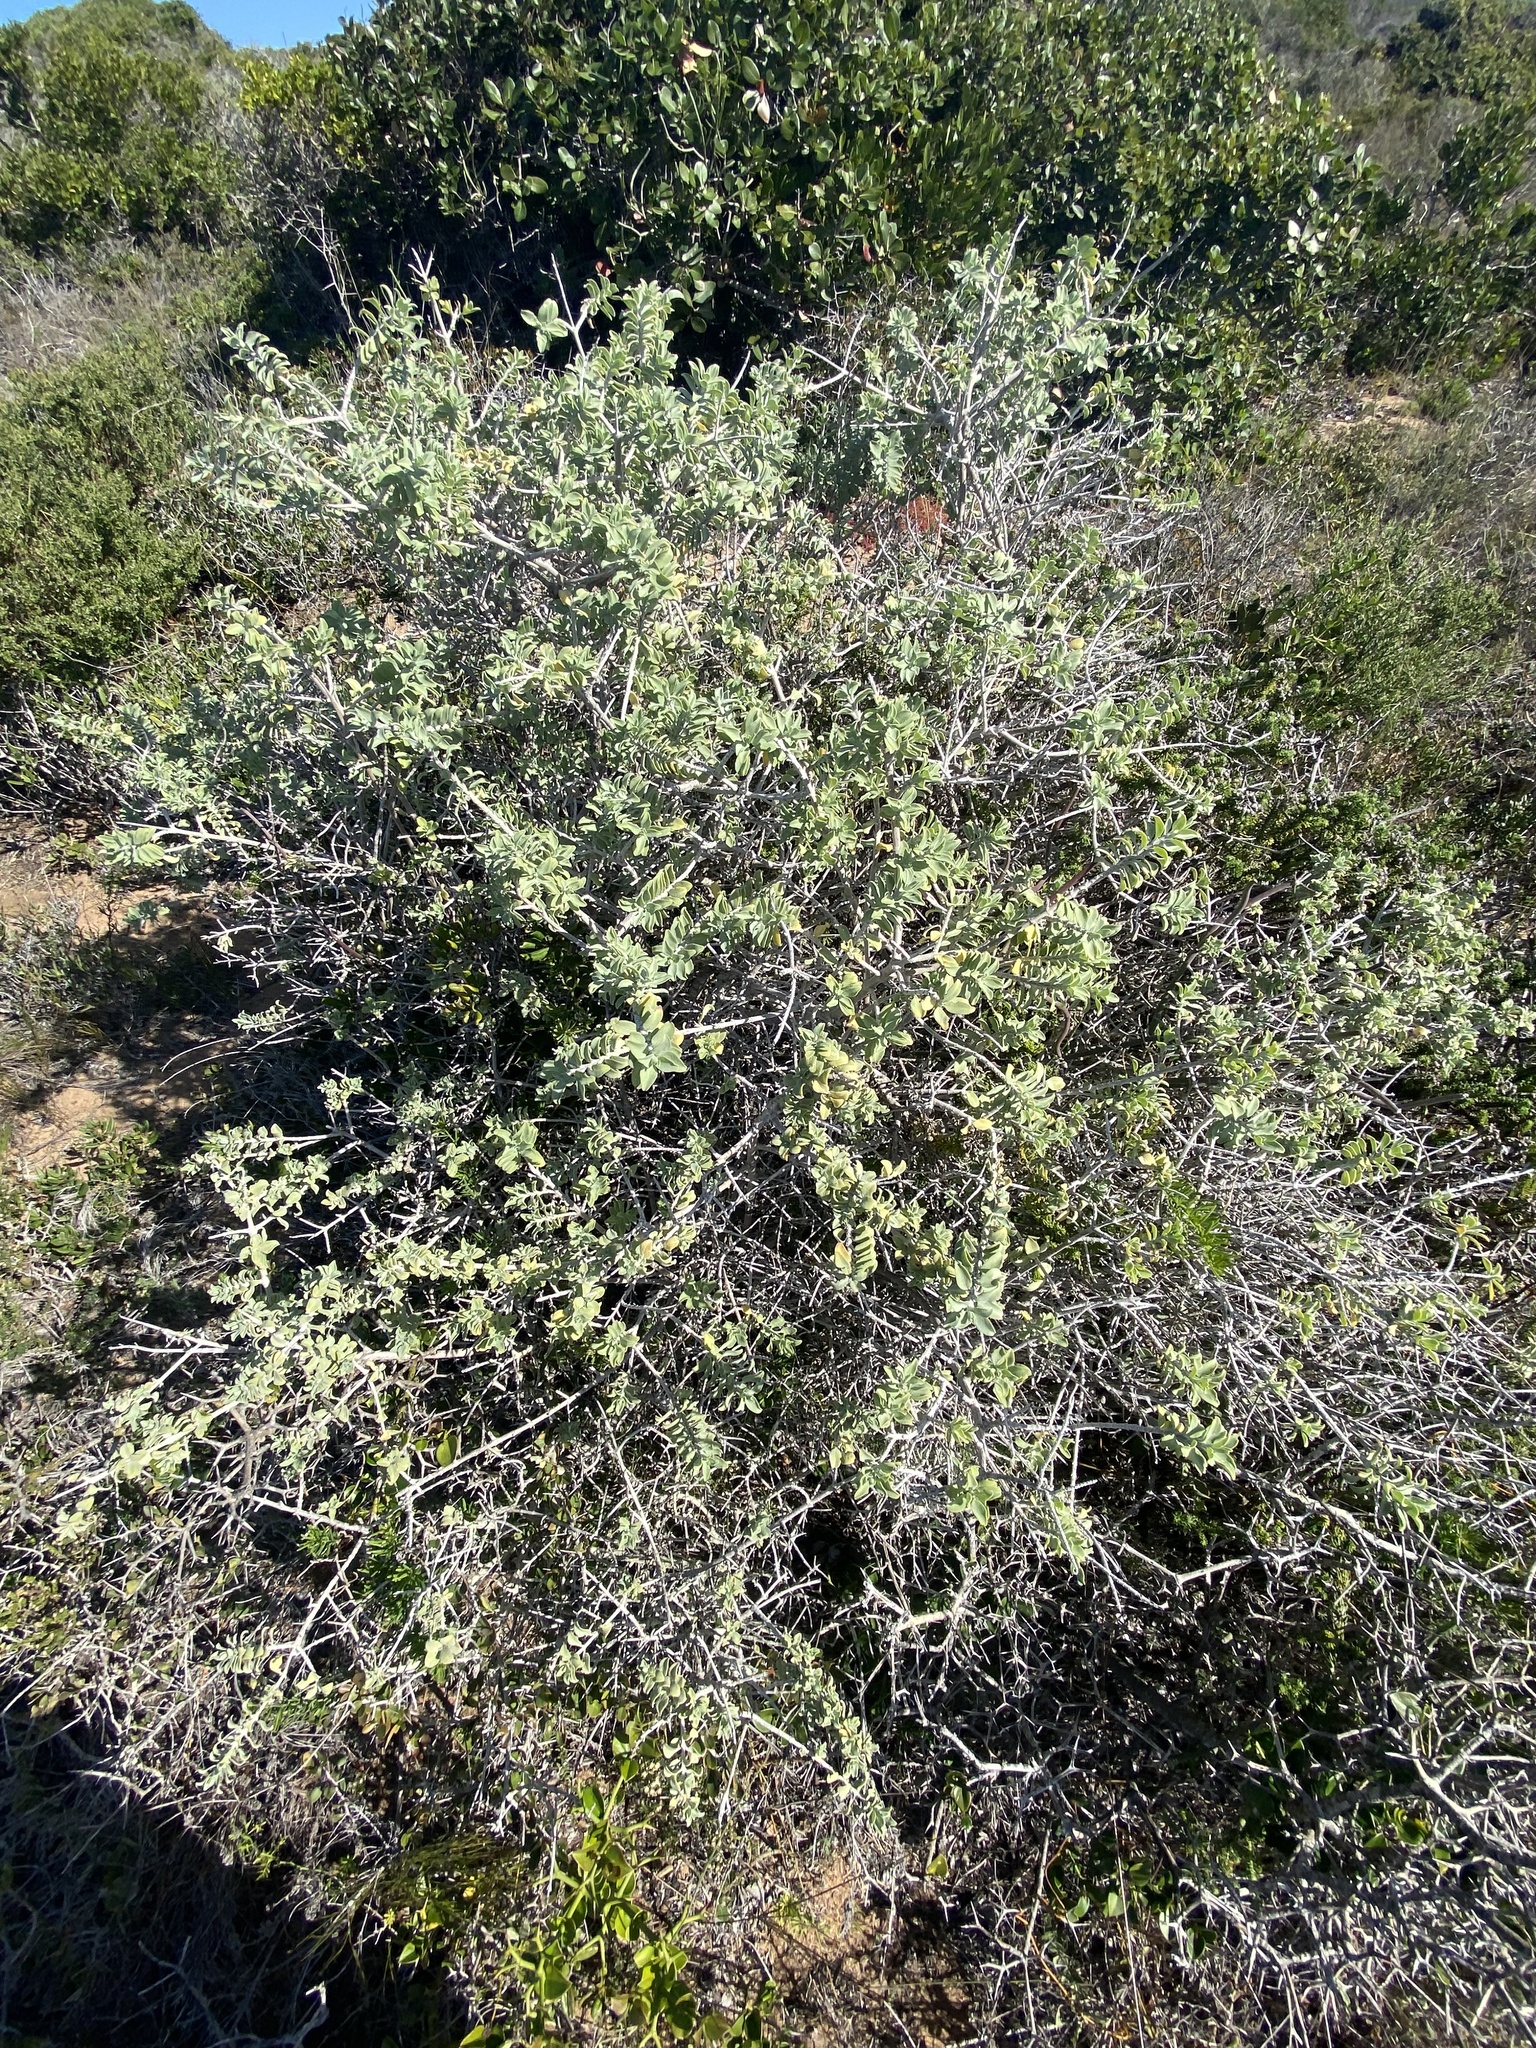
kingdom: Plantae
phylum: Tracheophyta
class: Magnoliopsida
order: Lamiales
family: Lamiaceae
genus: Salvia
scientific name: Salvia aurea
